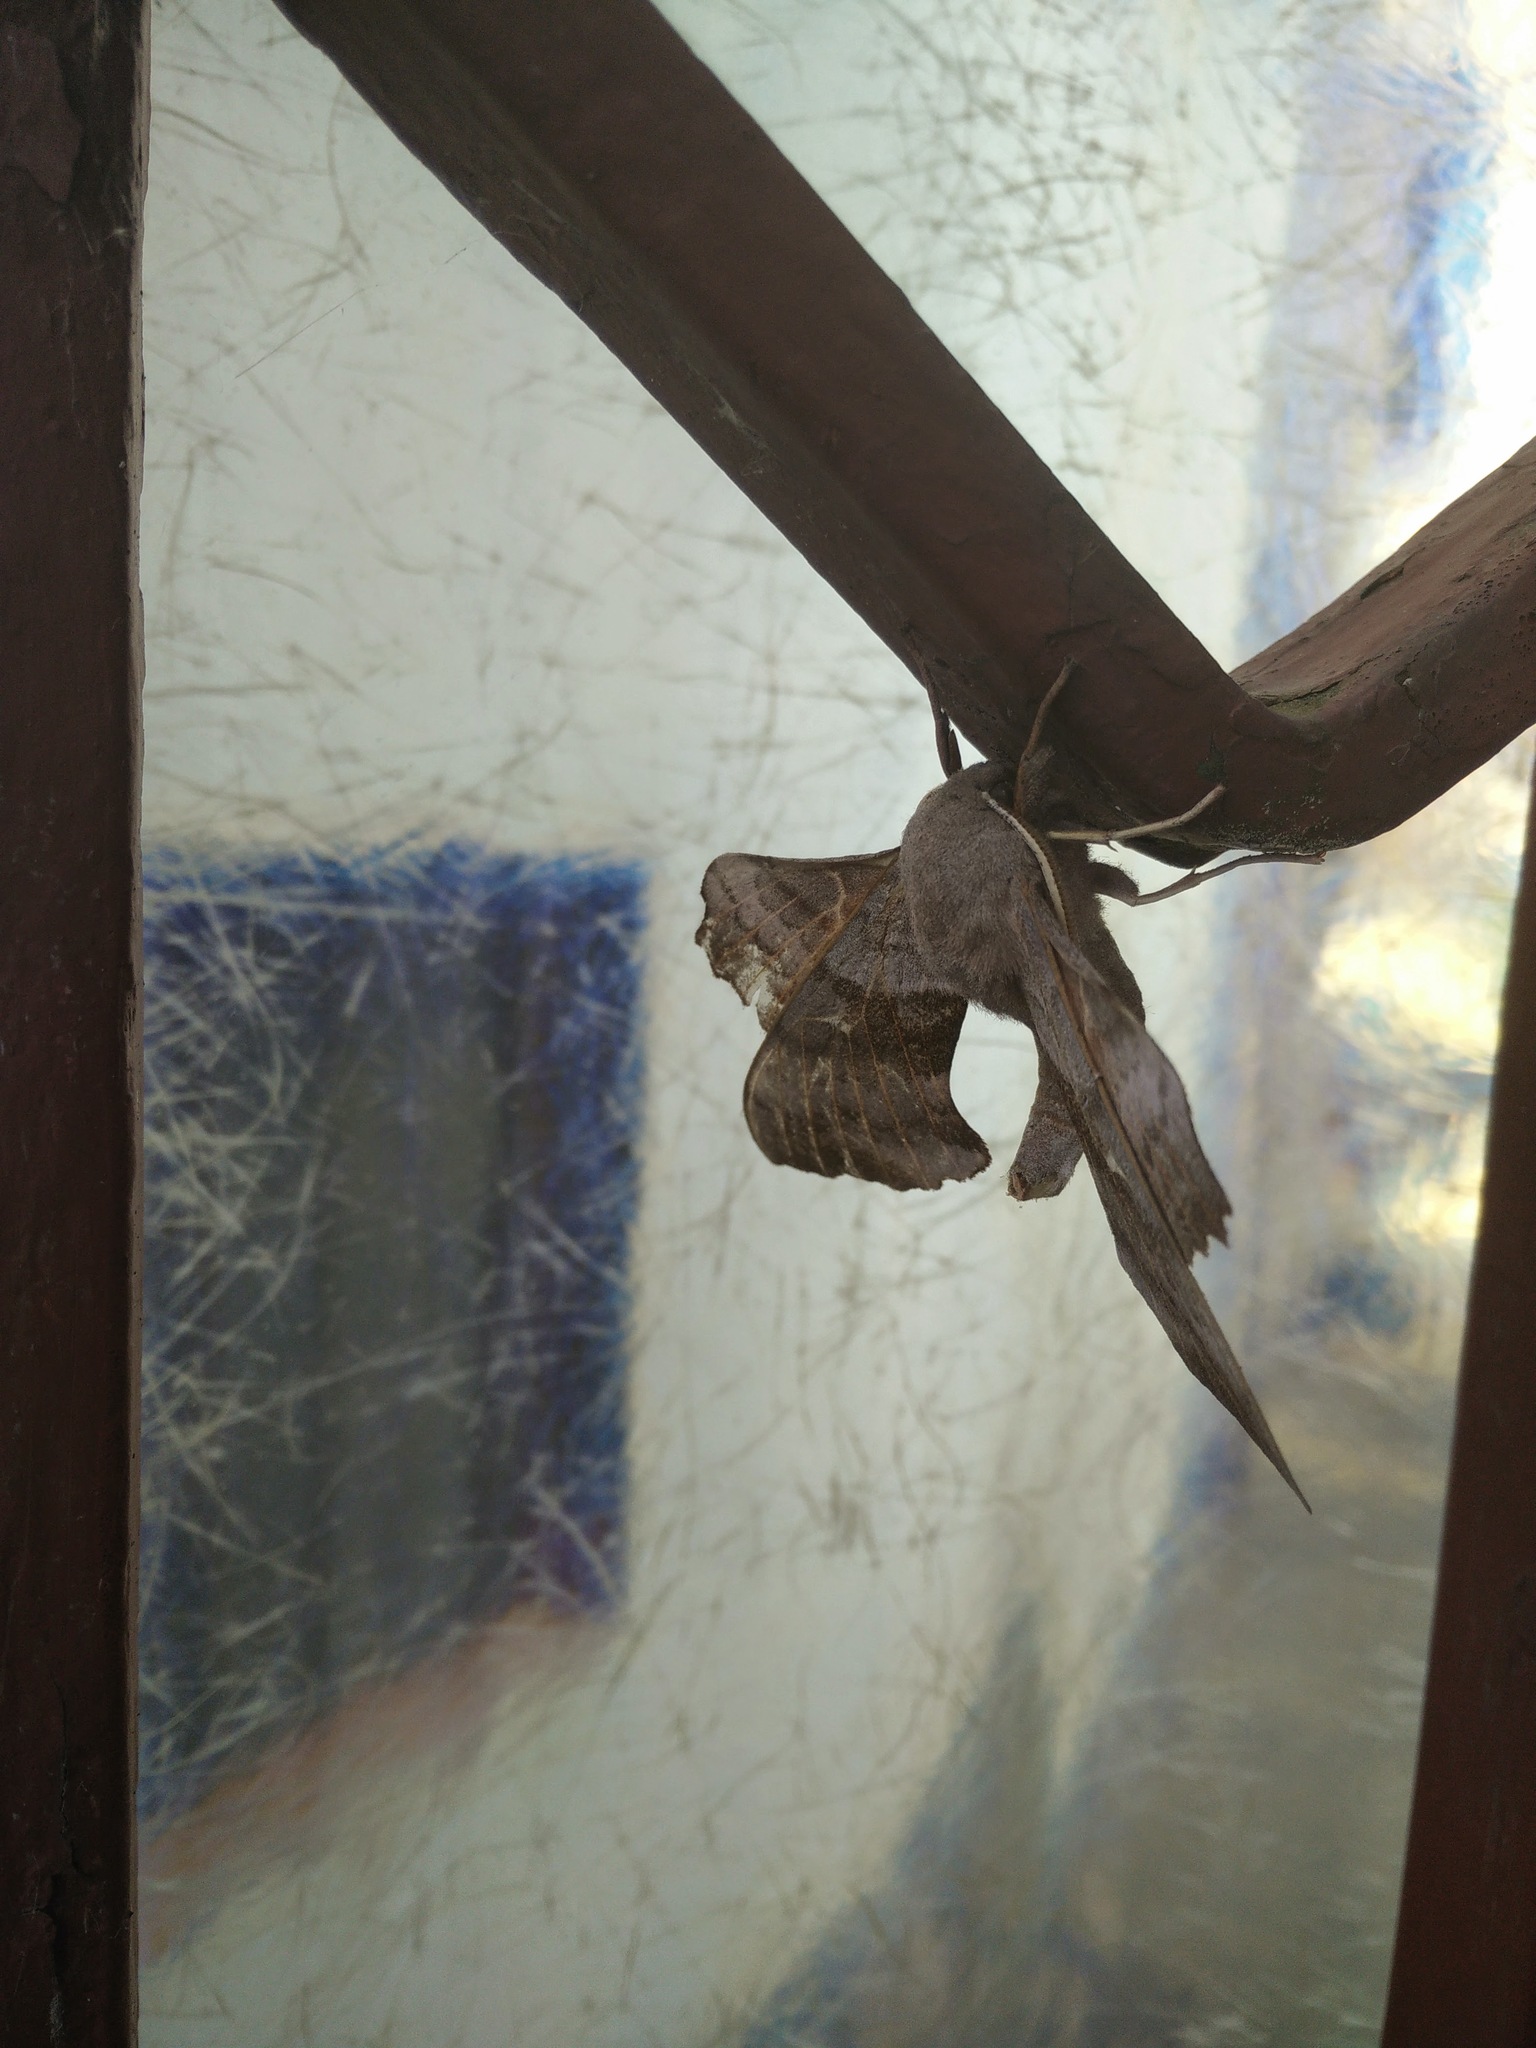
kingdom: Animalia
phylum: Arthropoda
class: Insecta
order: Lepidoptera
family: Sphingidae
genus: Laothoe
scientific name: Laothoe populi
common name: Poplar hawk-moth
